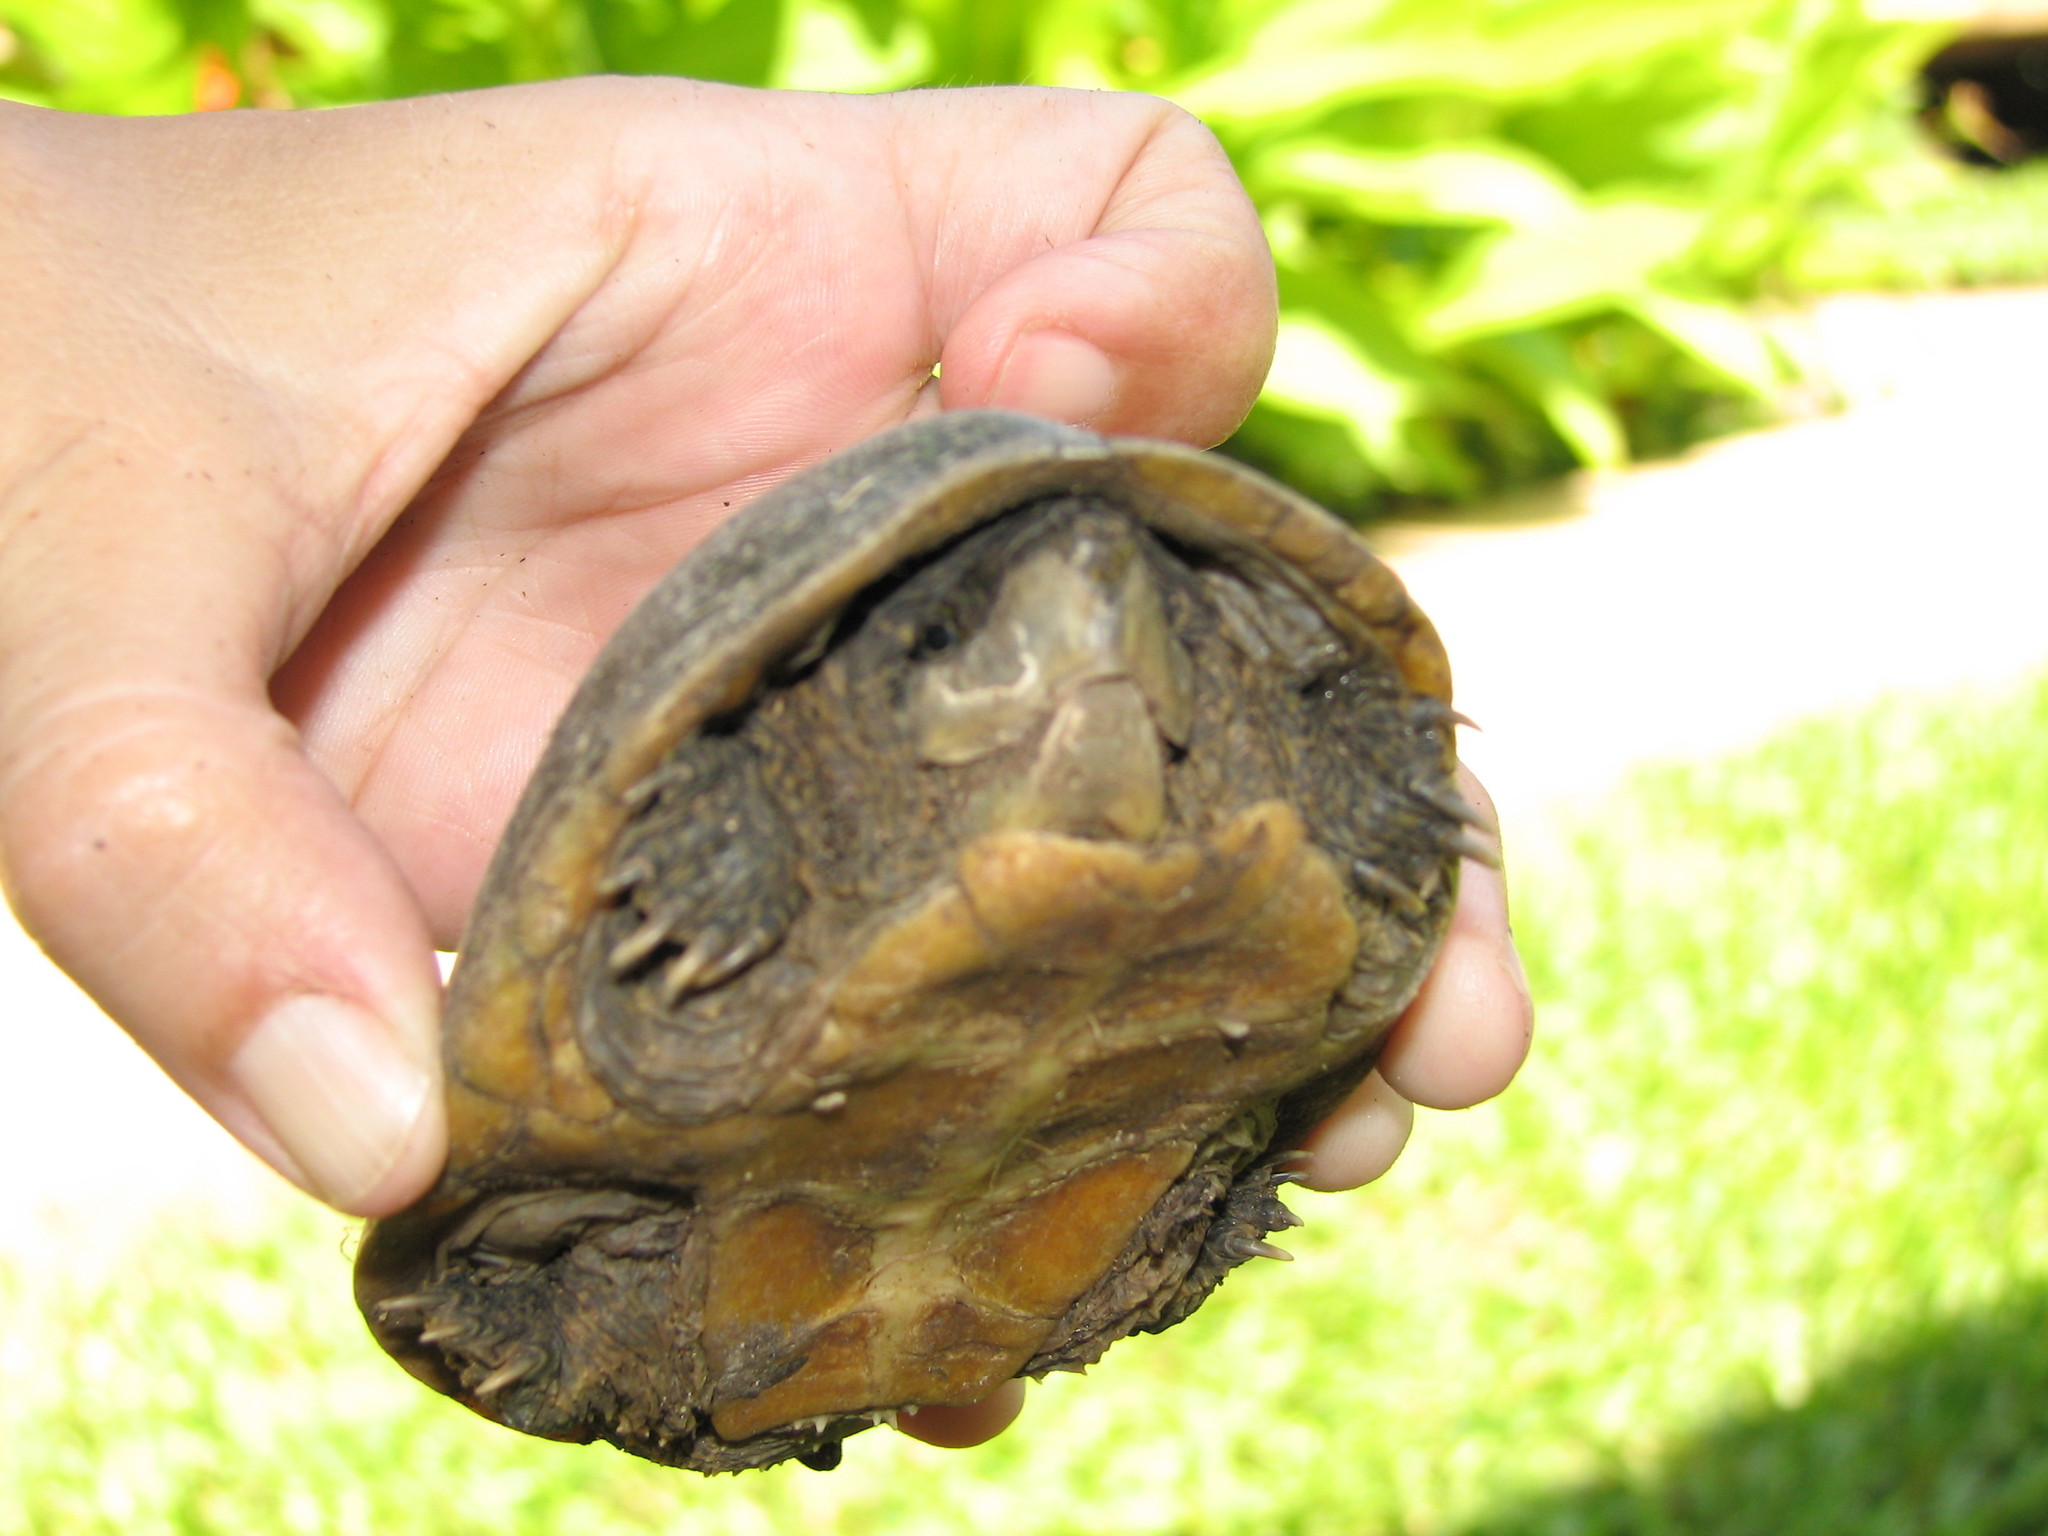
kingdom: Animalia
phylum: Chordata
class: Testudines
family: Kinosternidae
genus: Sternotherus
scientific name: Sternotherus odoratus
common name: Common musk turtle
